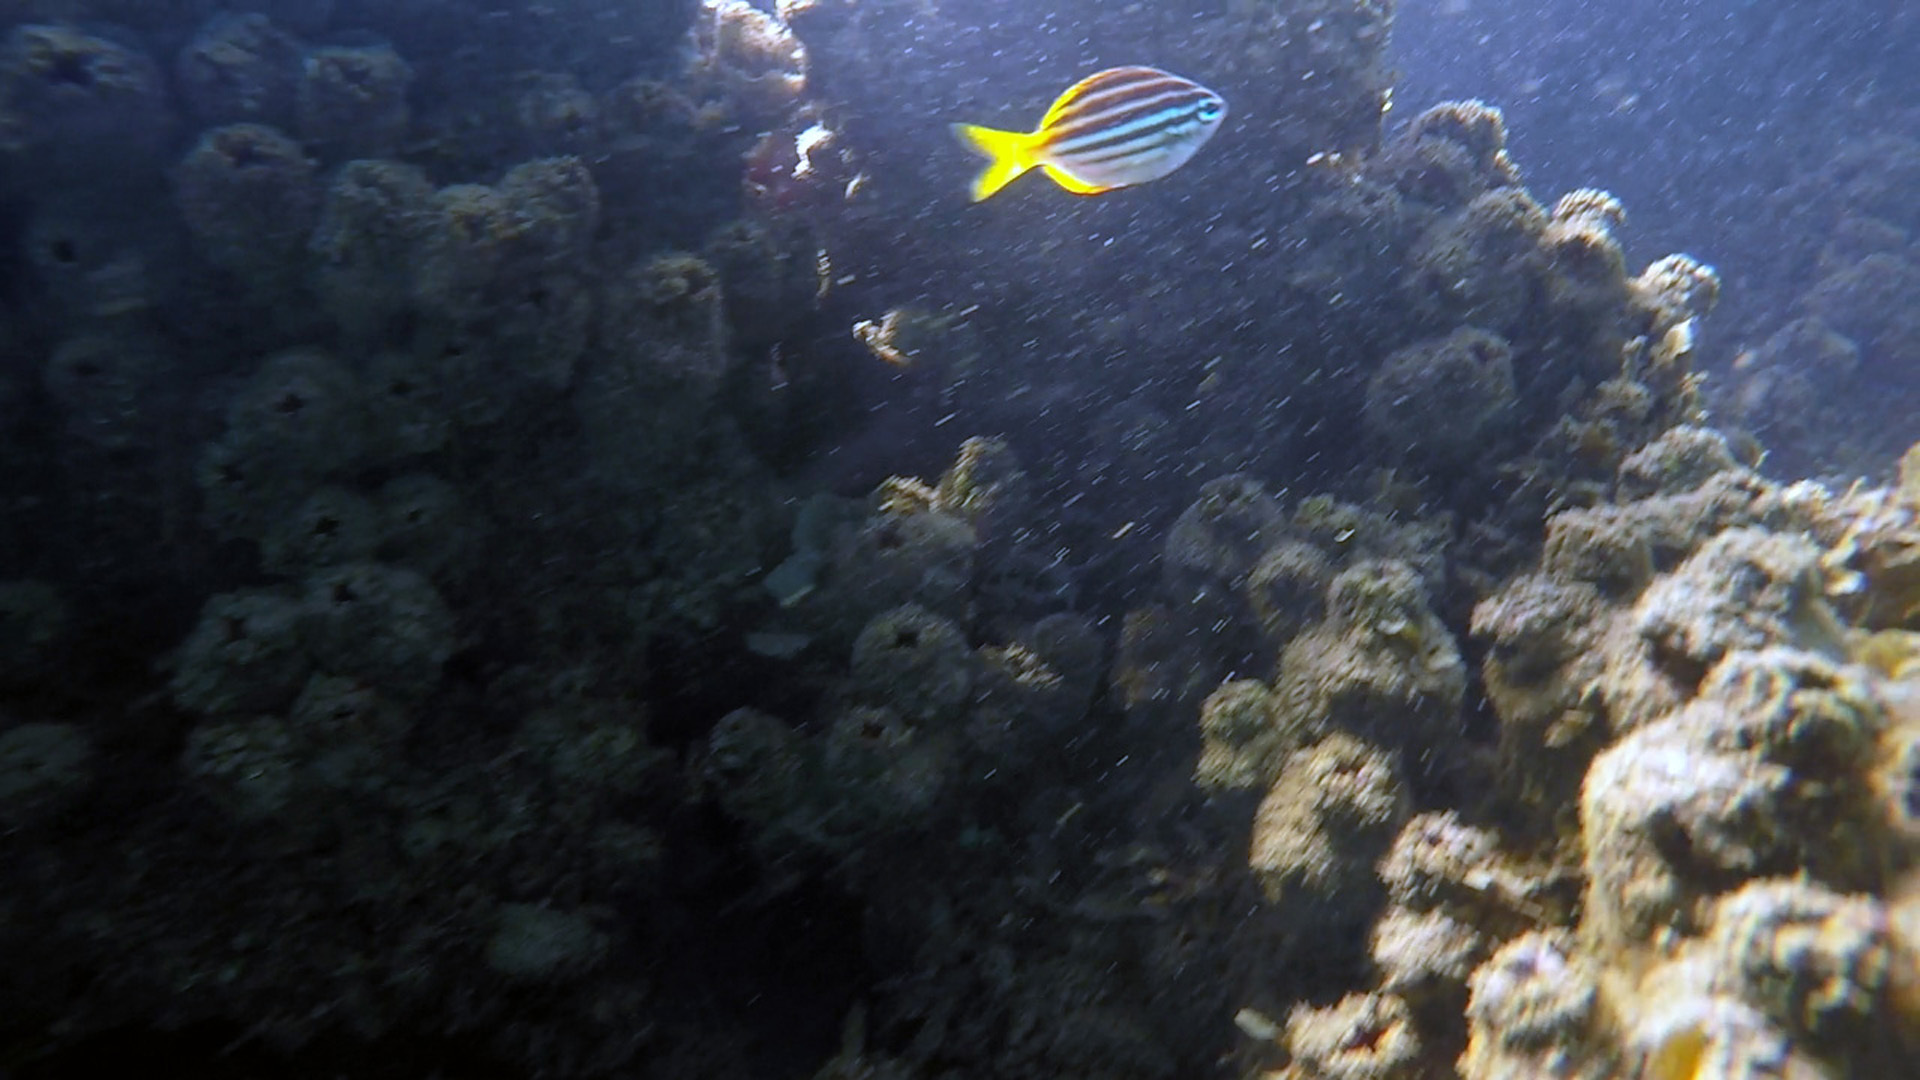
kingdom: Animalia
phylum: Chordata
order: Perciformes
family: Kyphosidae
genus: Atypichthys
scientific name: Atypichthys strigatus
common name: Australian mado
